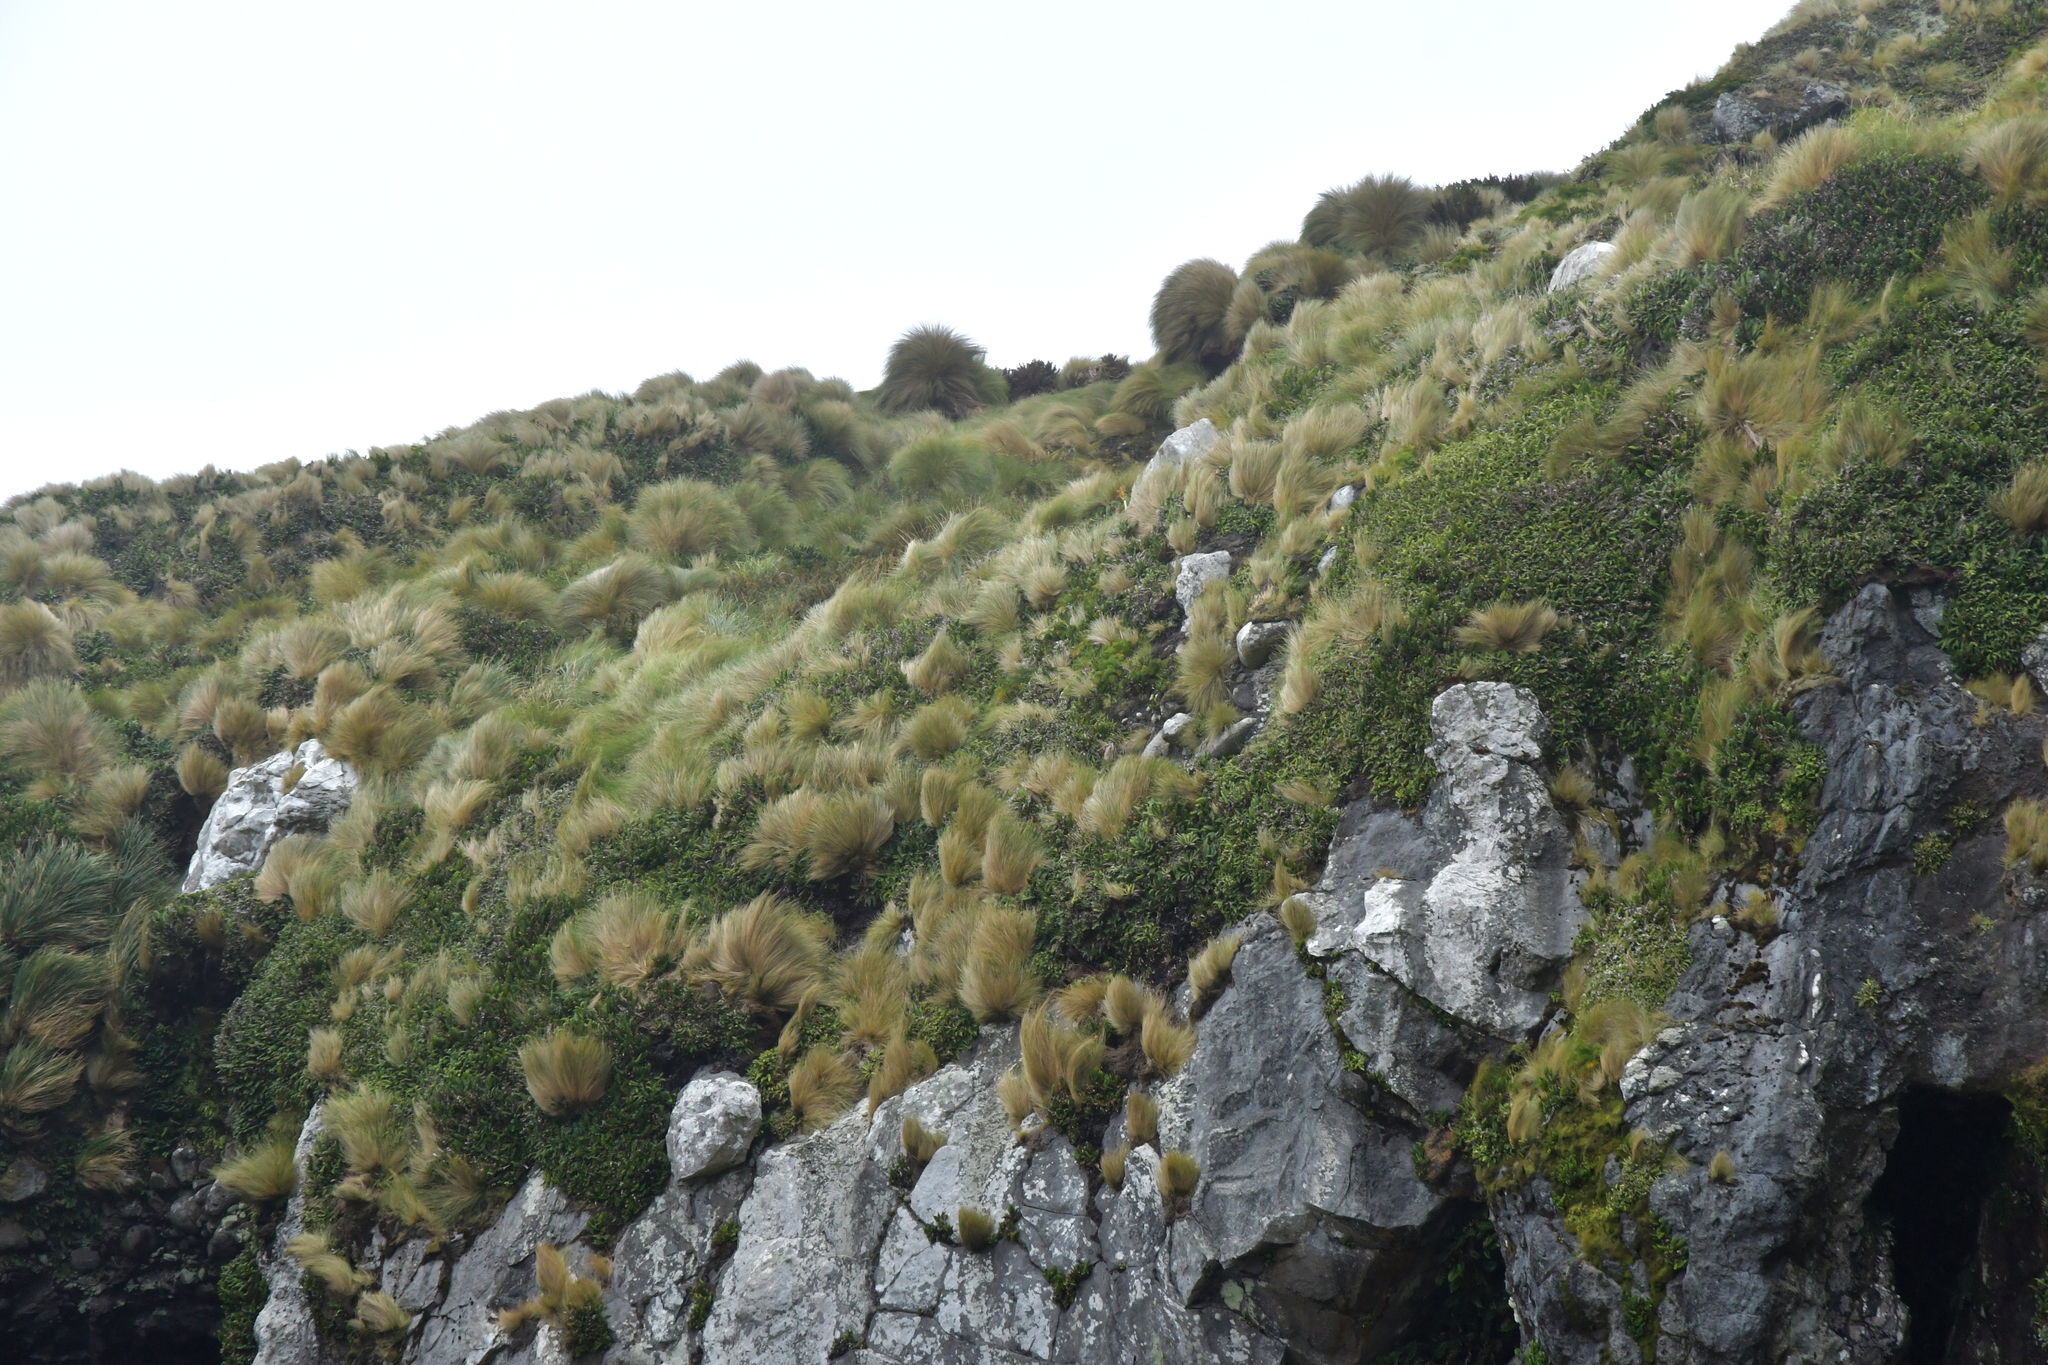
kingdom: Plantae
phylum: Tracheophyta
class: Liliopsida
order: Poales
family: Poaceae
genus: Poa
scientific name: Poa litorosa
